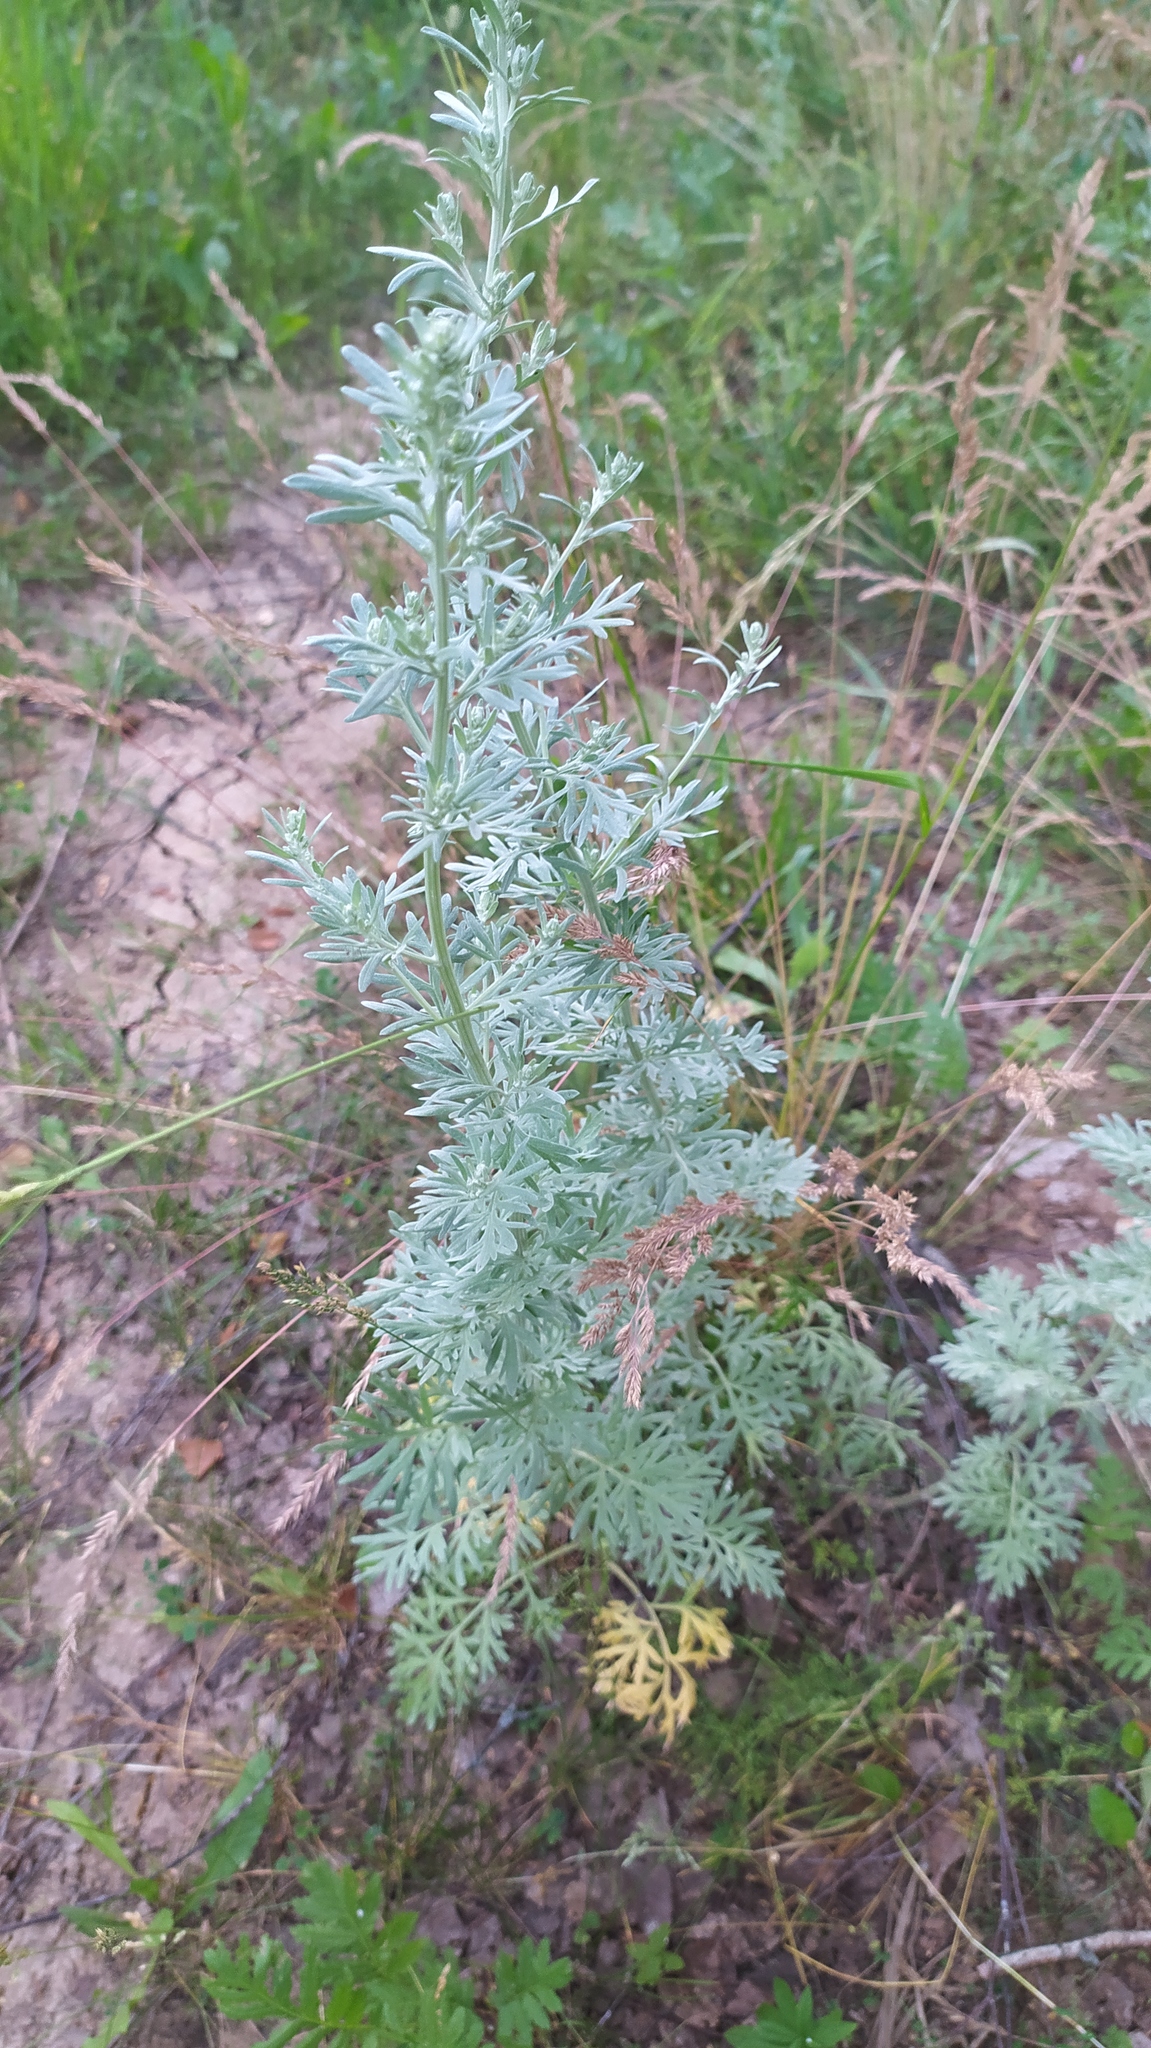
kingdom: Plantae
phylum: Tracheophyta
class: Magnoliopsida
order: Asterales
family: Asteraceae
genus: Artemisia
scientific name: Artemisia absinthium
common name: Wormwood
